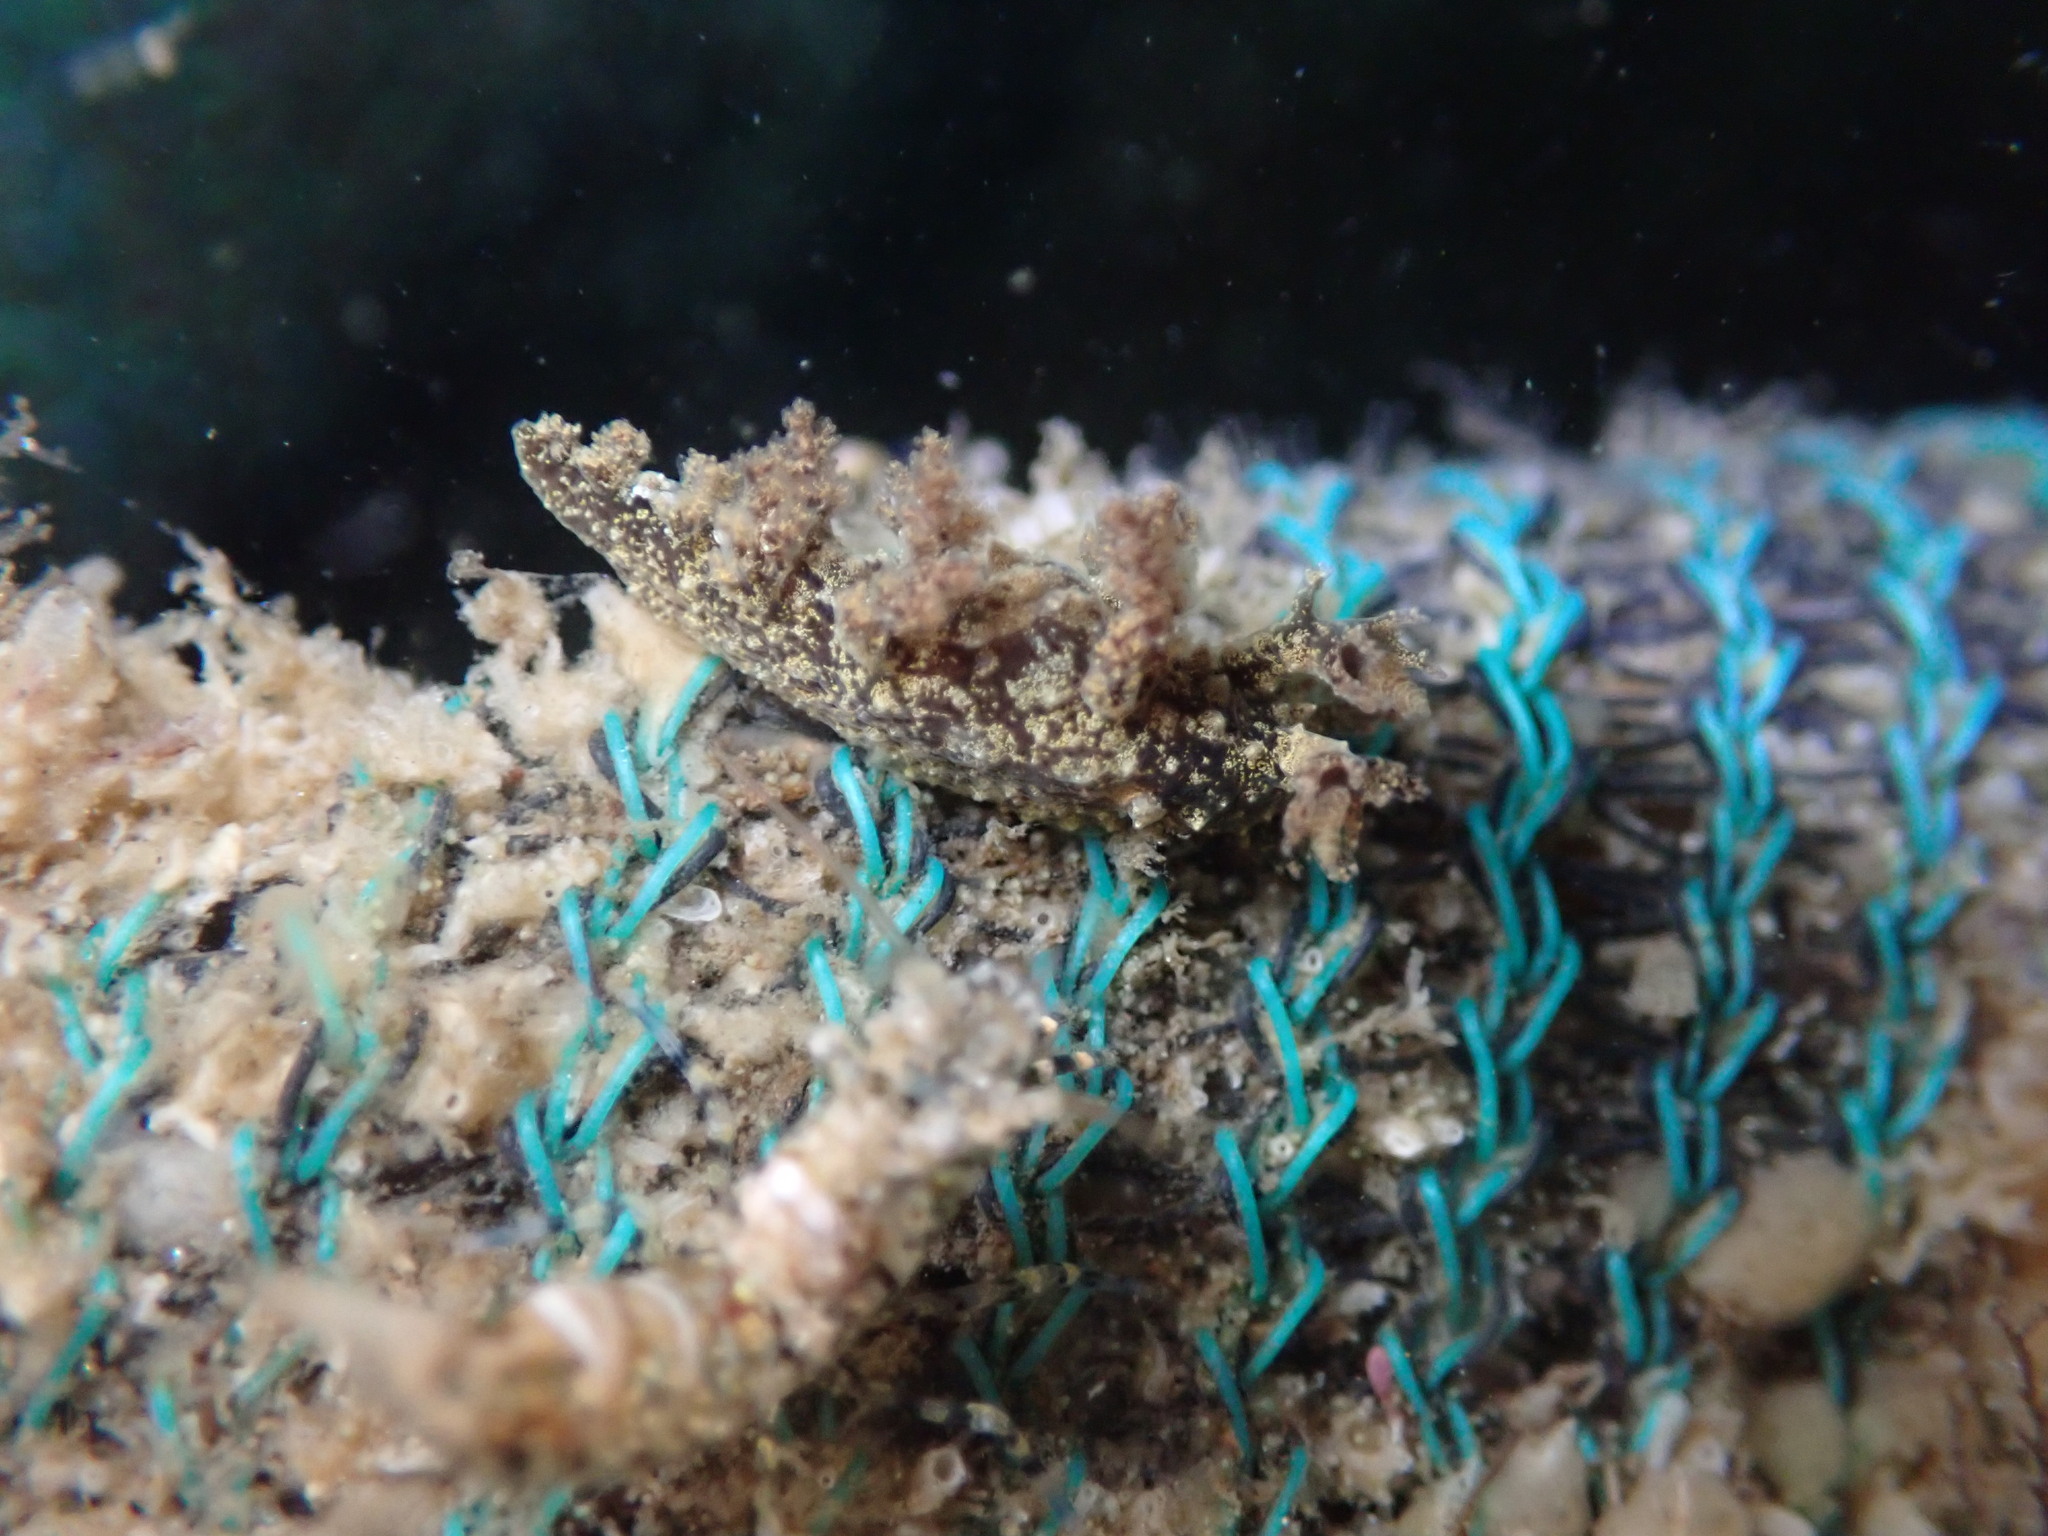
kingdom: Animalia
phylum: Mollusca
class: Gastropoda
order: Nudibranchia
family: Dendronotidae
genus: Dendronotus
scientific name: Dendronotus venustus
